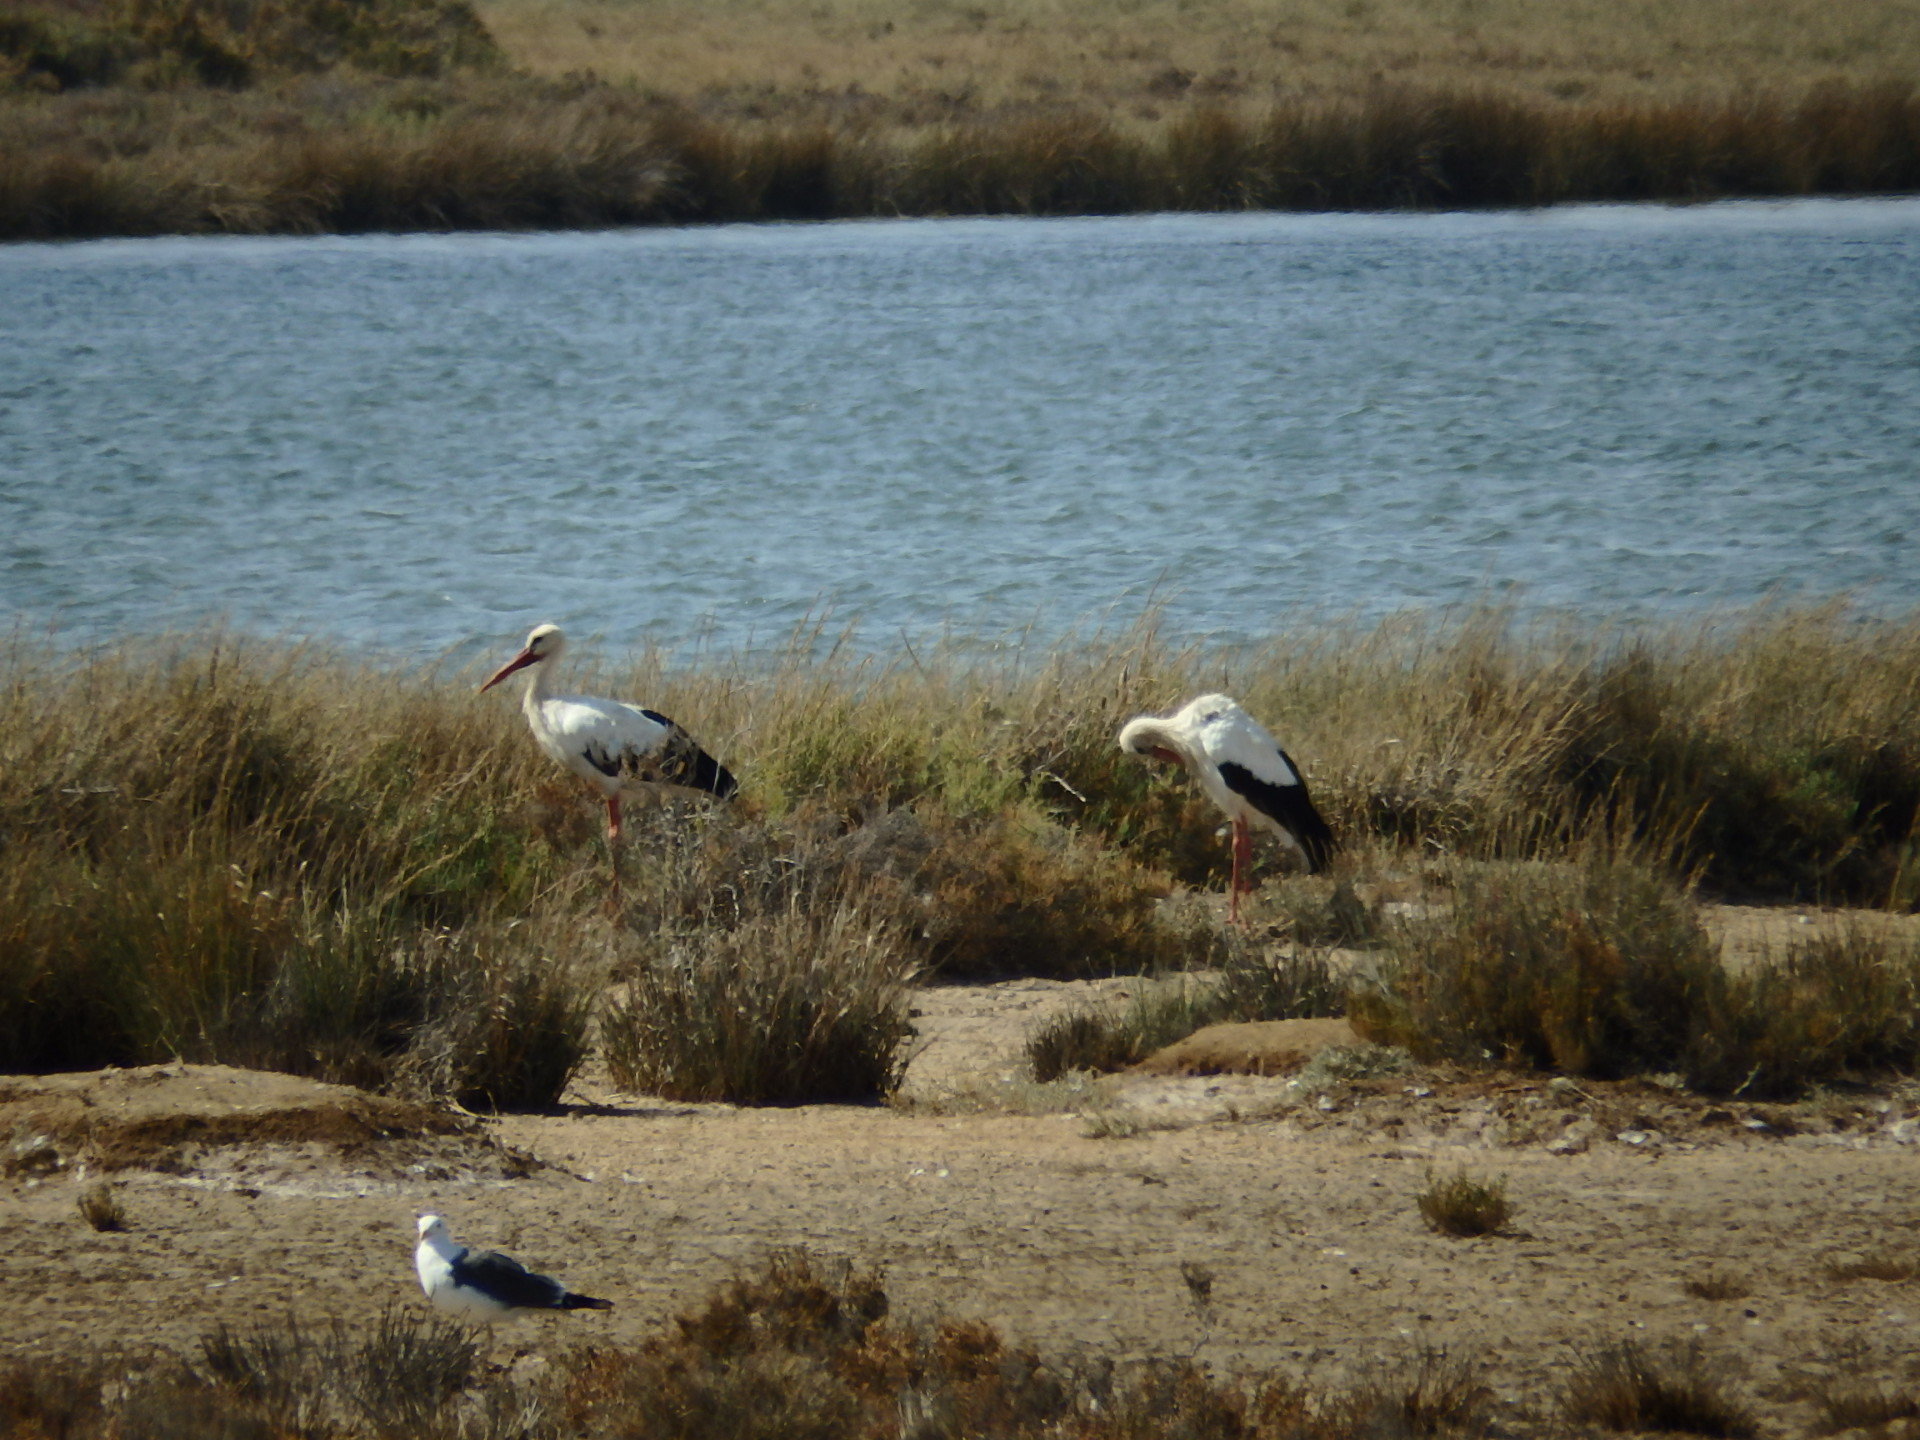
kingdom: Animalia
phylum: Chordata
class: Aves
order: Ciconiiformes
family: Ciconiidae
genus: Ciconia
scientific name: Ciconia ciconia
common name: White stork
